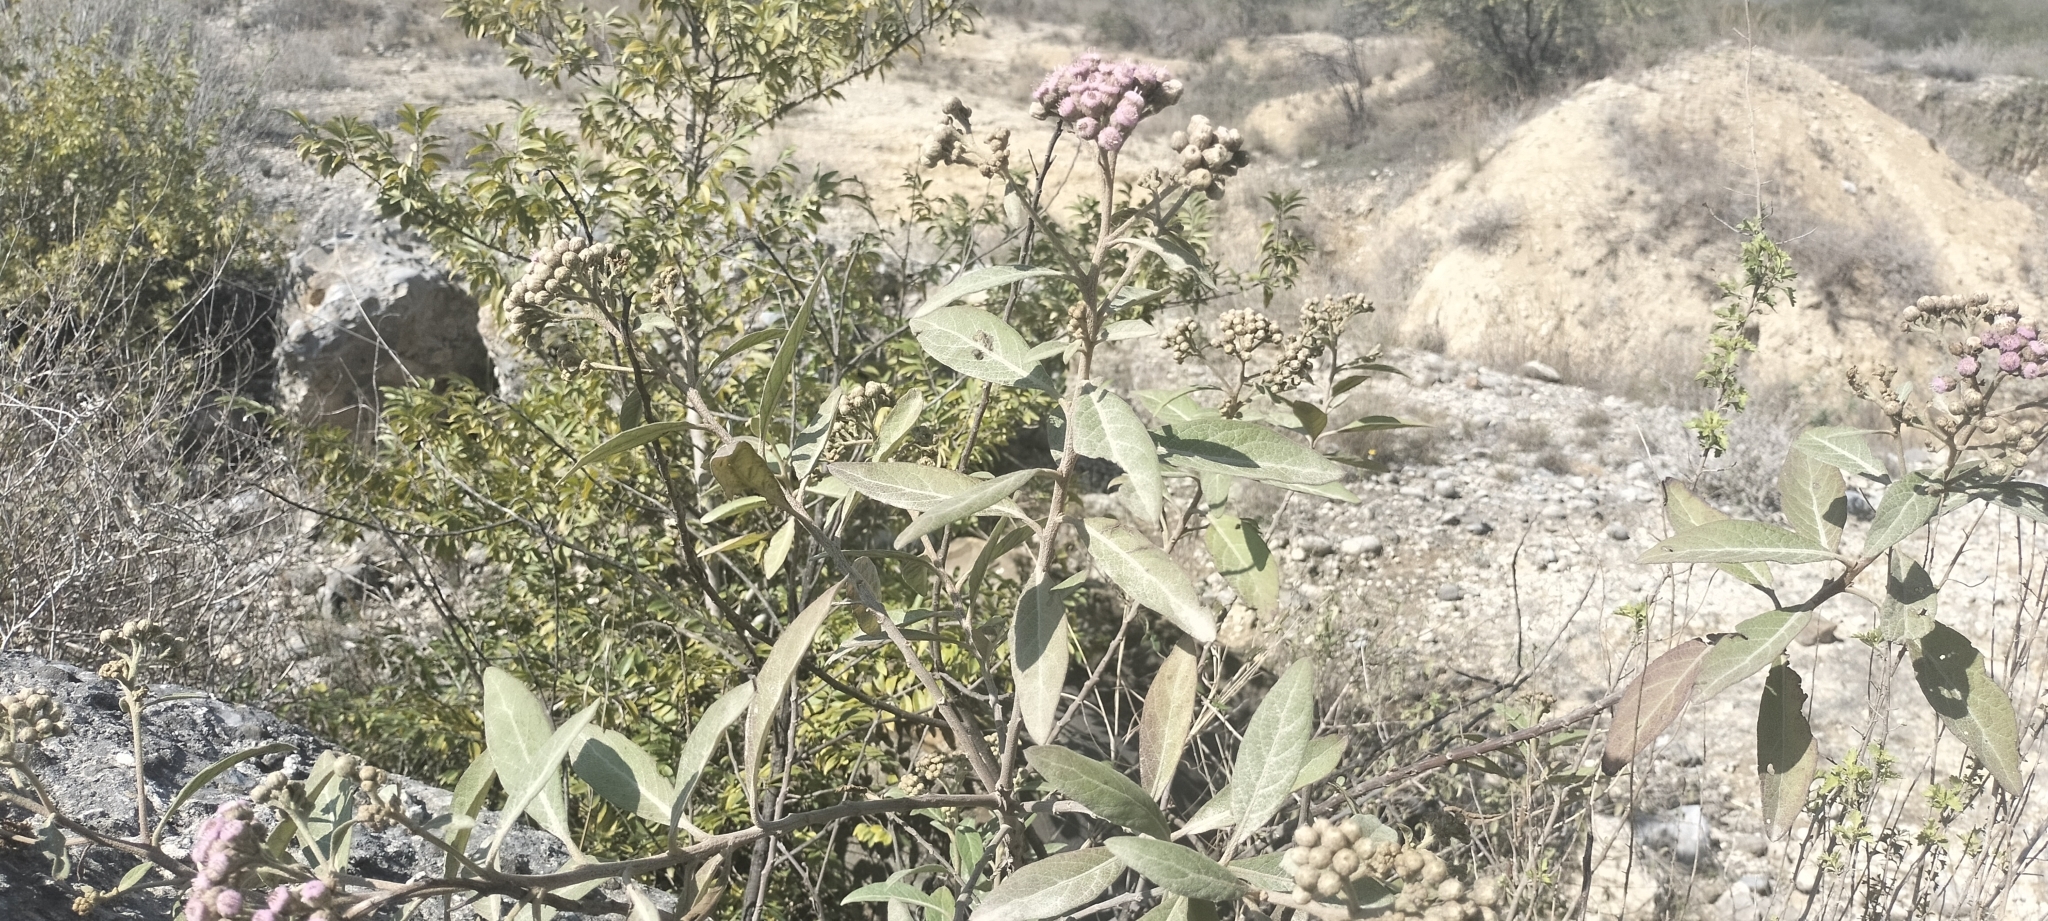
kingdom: Plantae
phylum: Tracheophyta
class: Magnoliopsida
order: Asterales
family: Asteraceae
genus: Pluchea
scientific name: Pluchea odorata
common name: Saltmarsh fleabane
